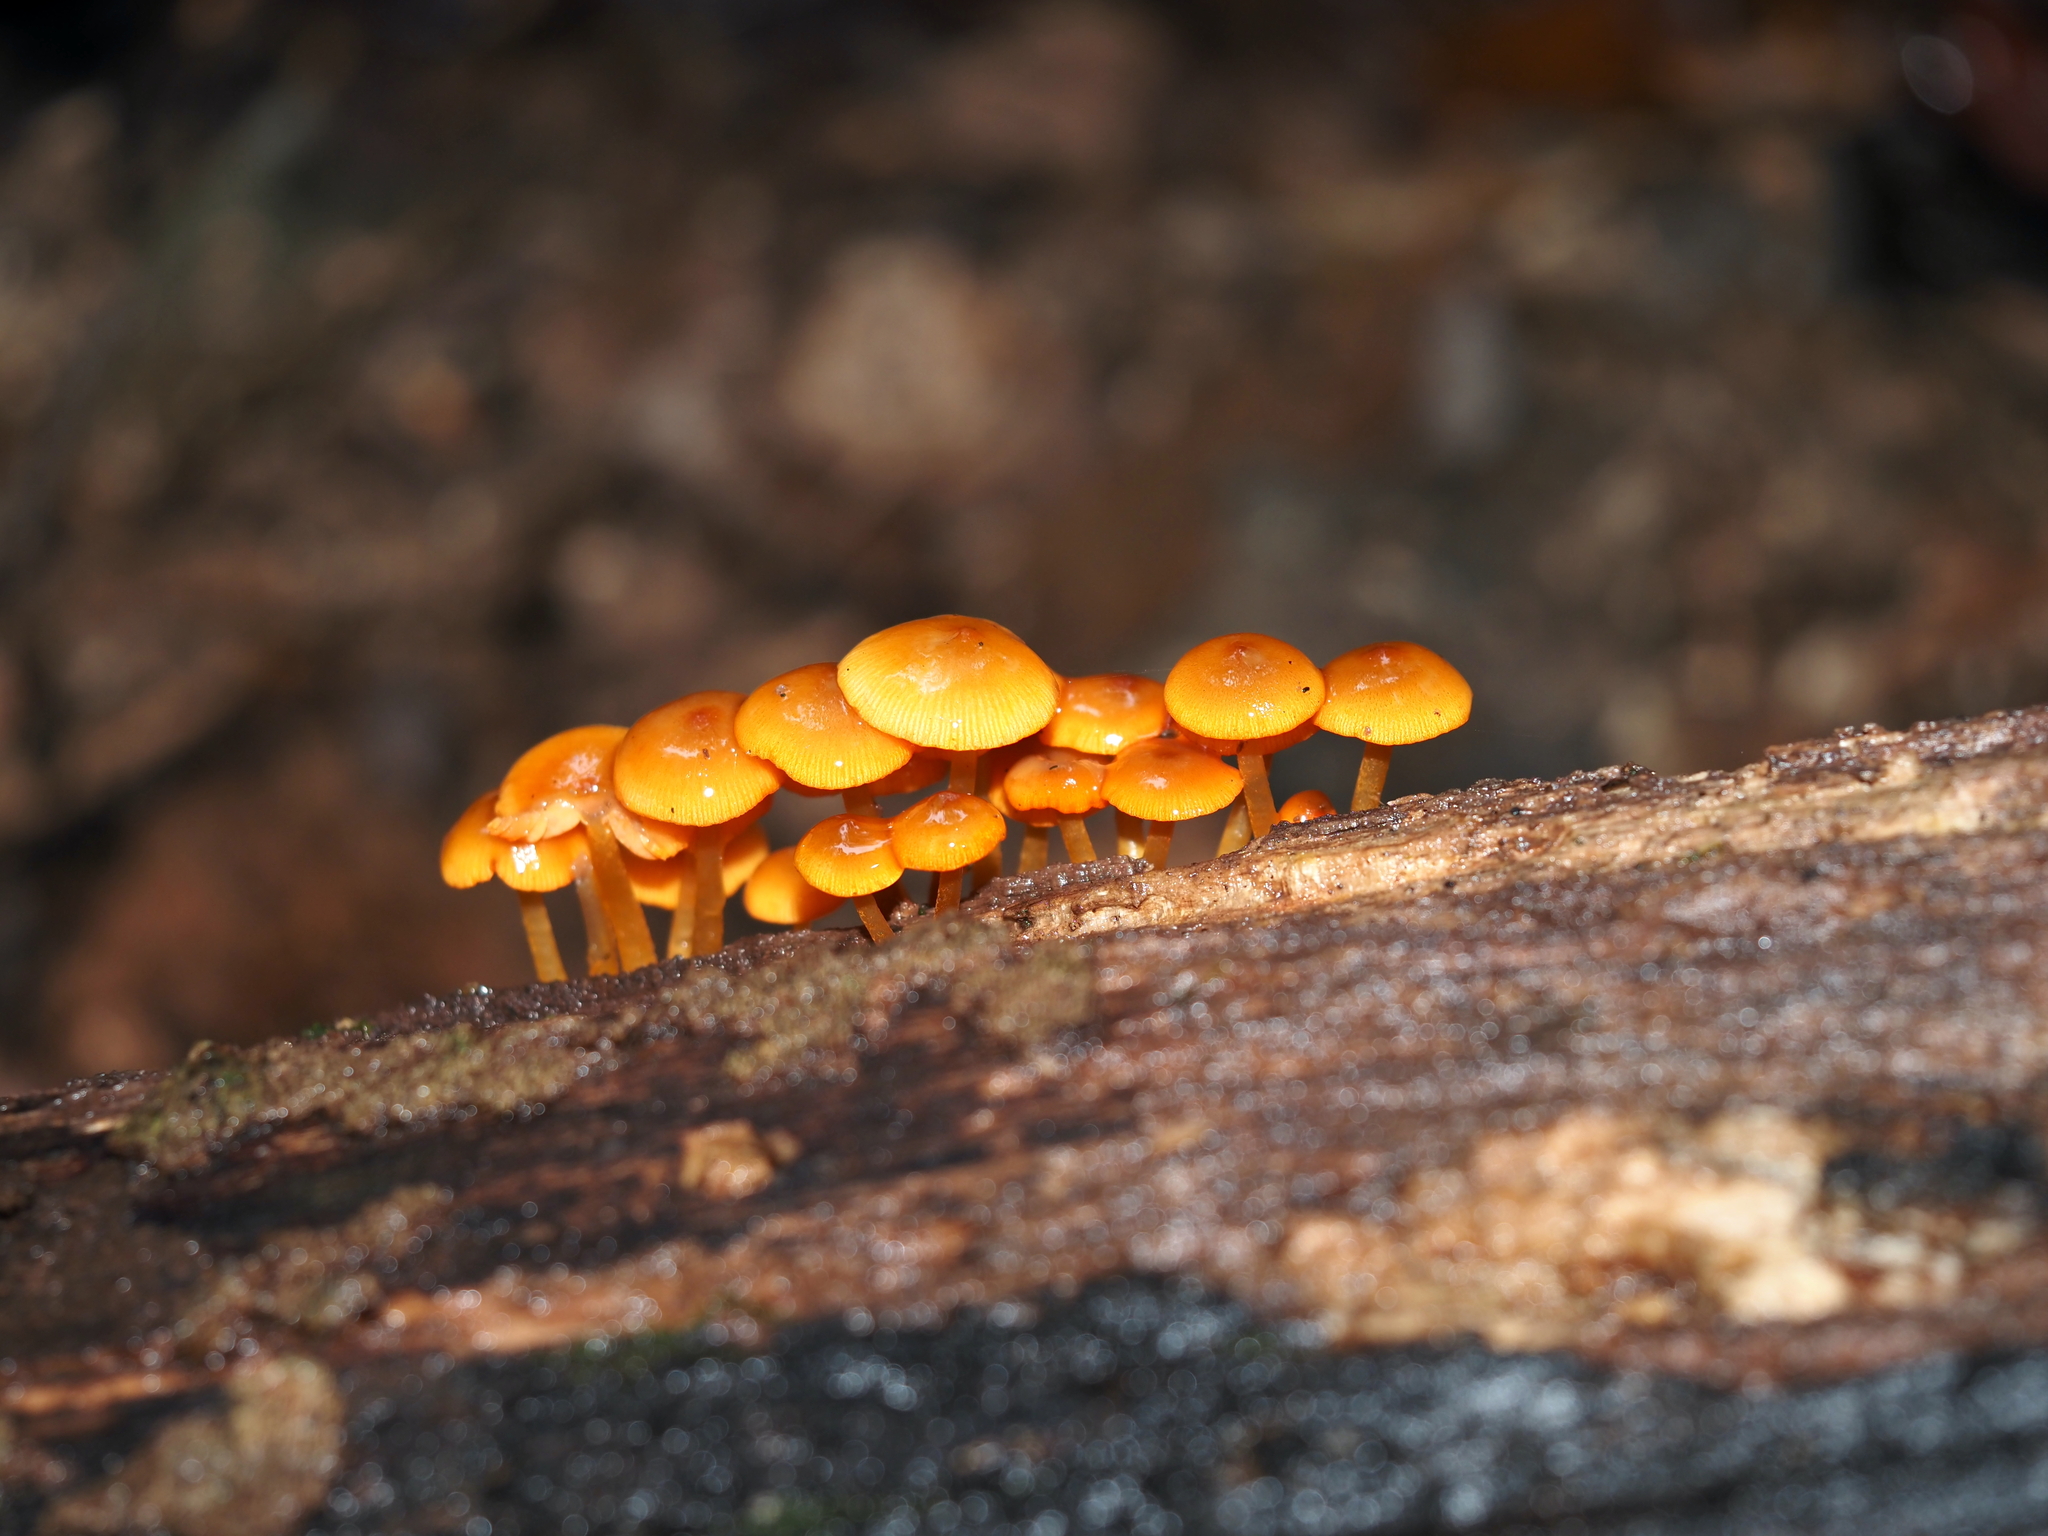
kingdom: Fungi
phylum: Basidiomycota
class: Agaricomycetes
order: Agaricales
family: Mycenaceae
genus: Mycena
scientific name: Mycena leaiana
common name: Orange mycena
